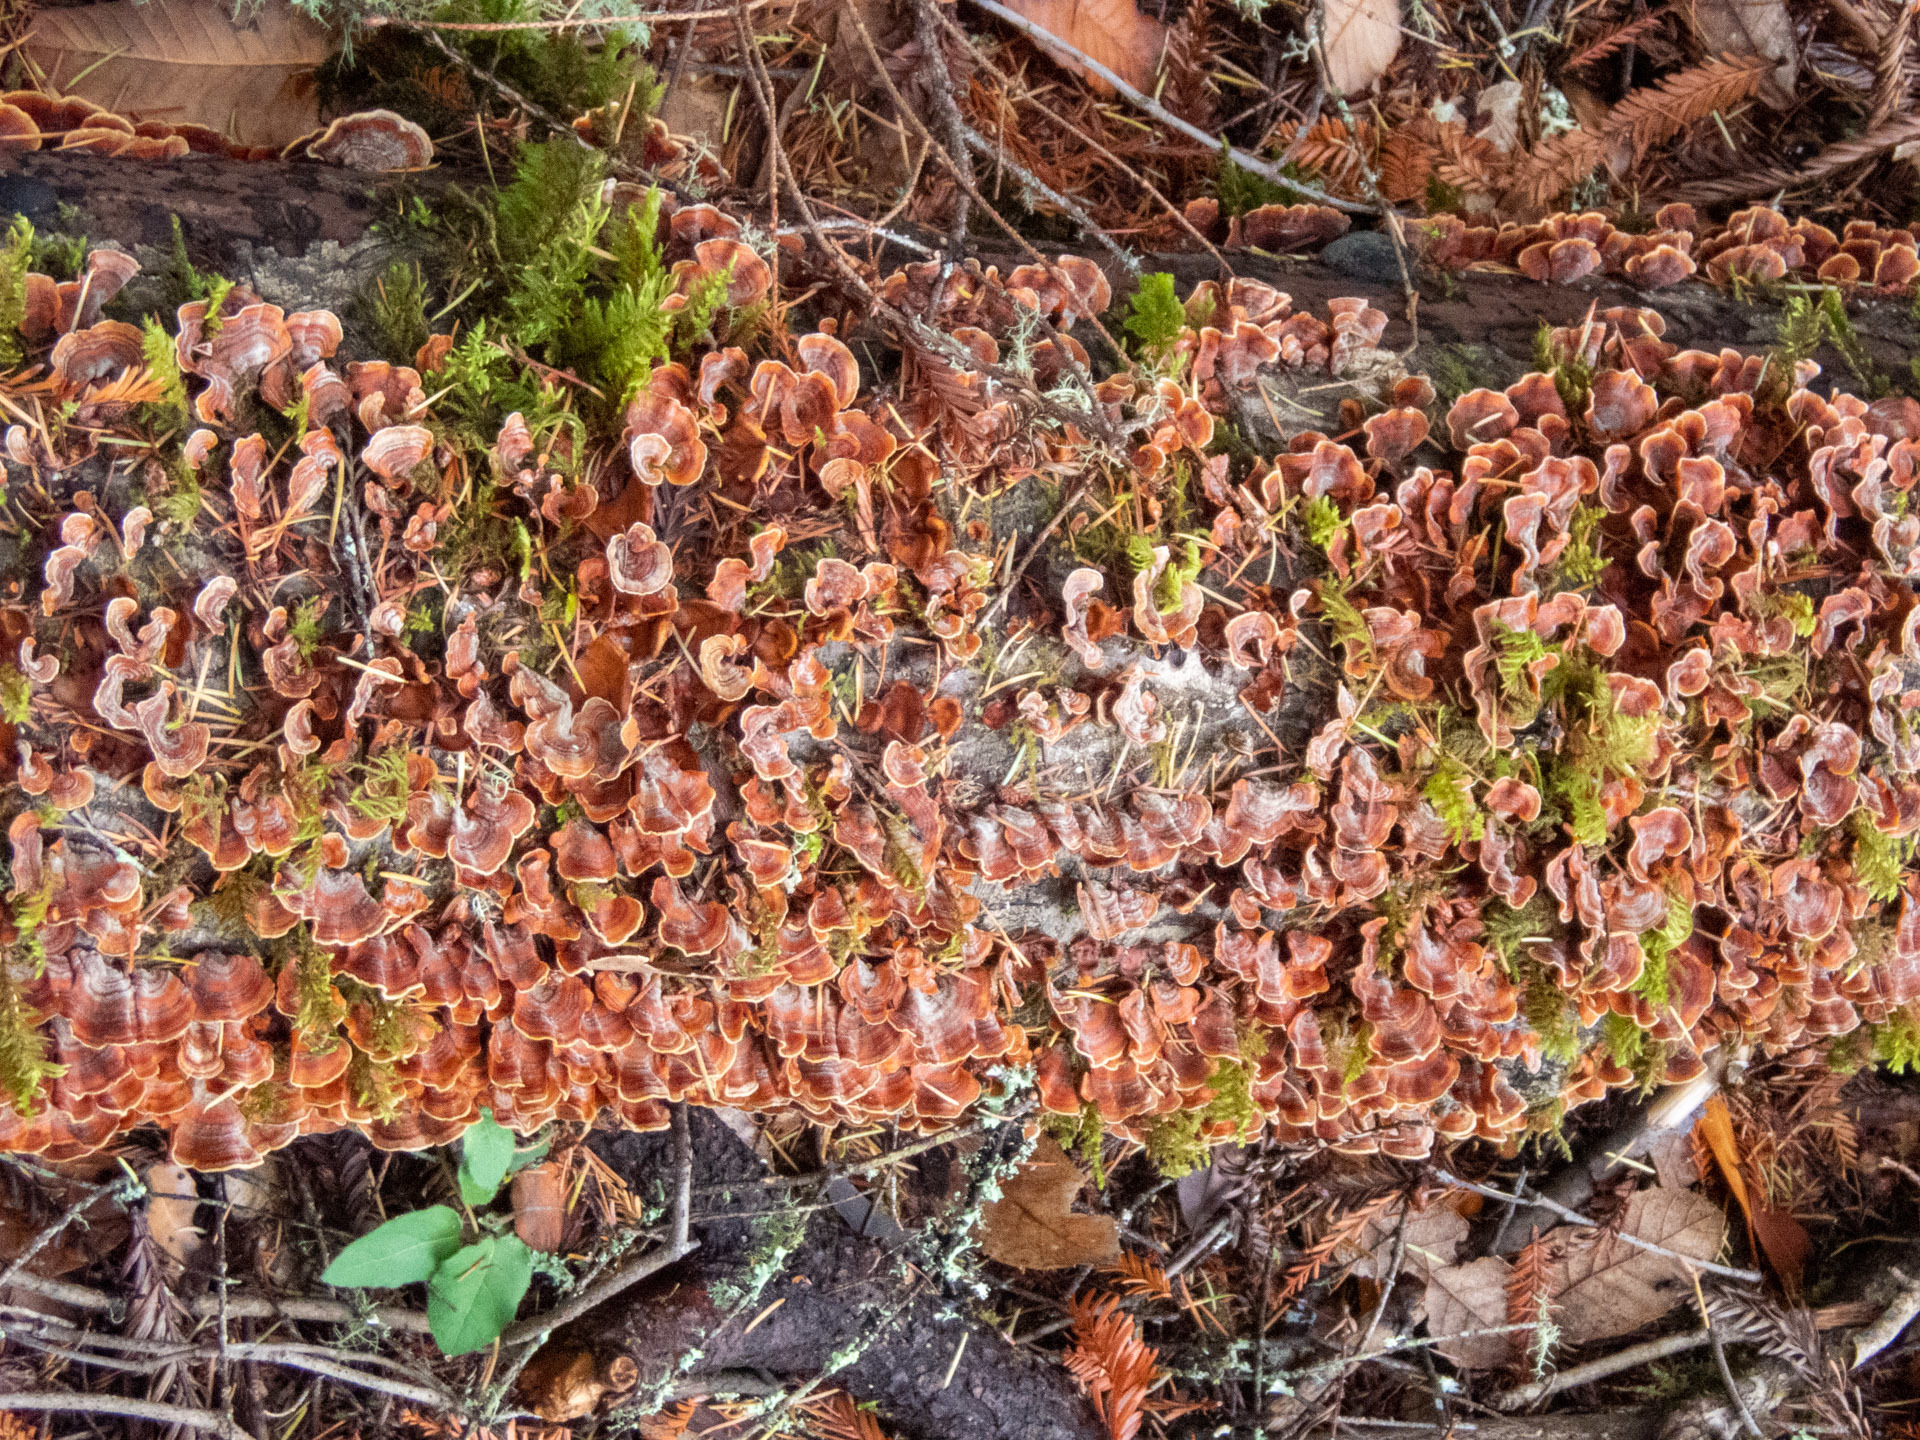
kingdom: Fungi
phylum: Basidiomycota
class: Agaricomycetes
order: Russulales
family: Stereaceae
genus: Stereum
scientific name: Stereum hirsutum
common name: Hairy curtain crust
